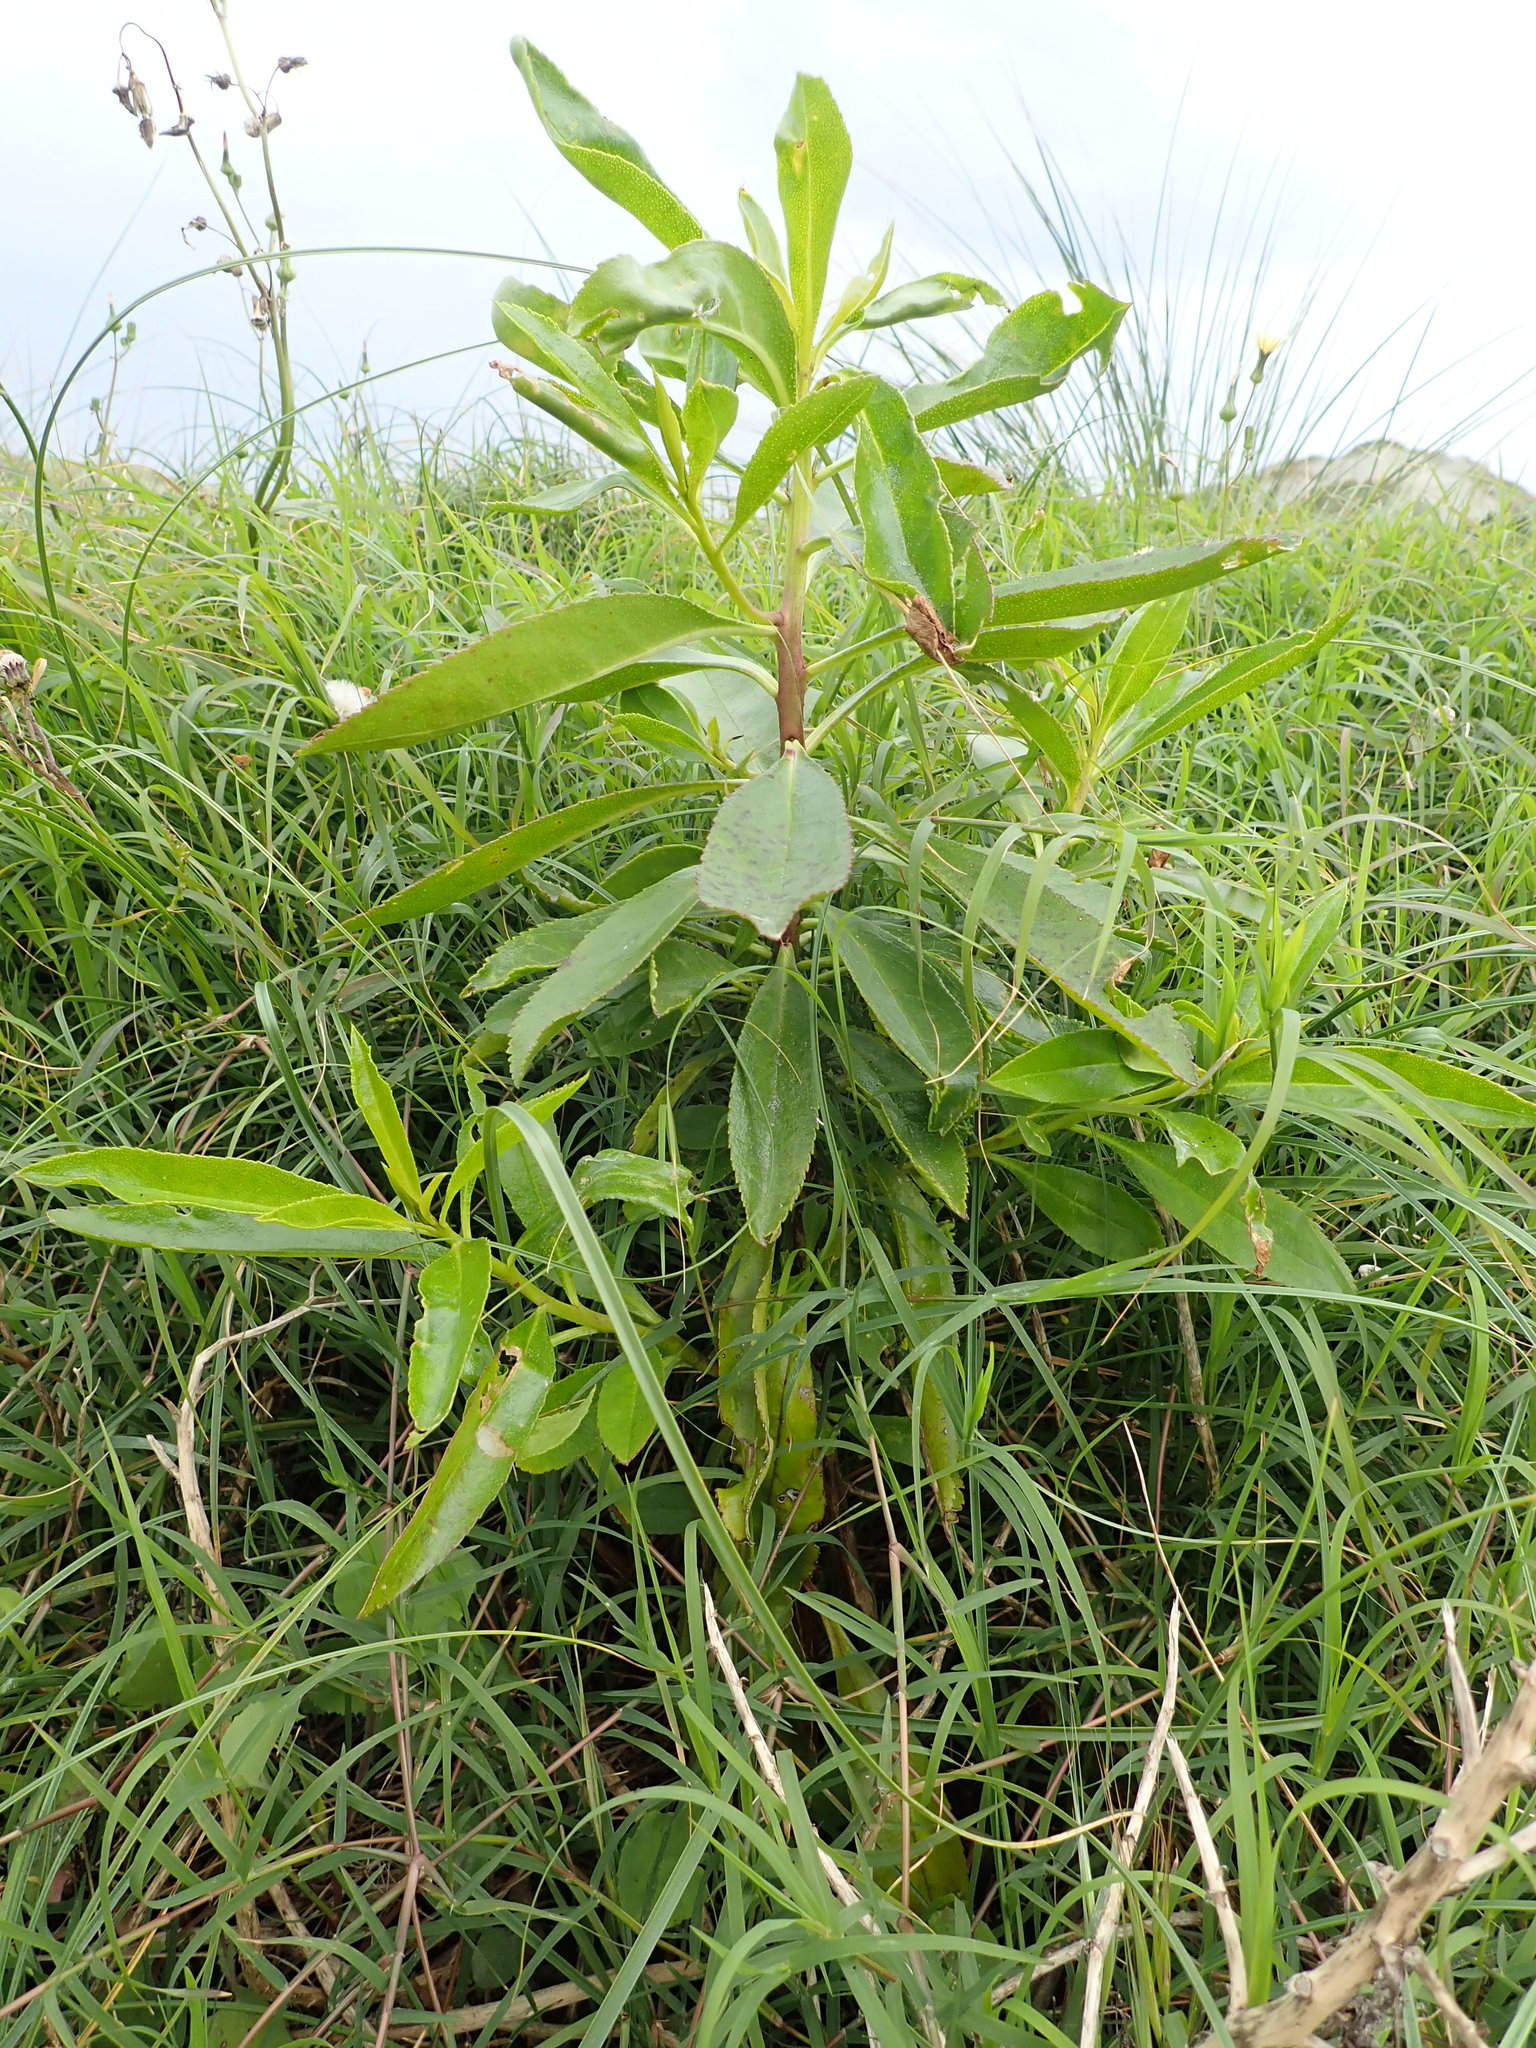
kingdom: Plantae
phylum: Tracheophyta
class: Magnoliopsida
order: Lamiales
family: Scrophulariaceae
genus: Myoporum
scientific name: Myoporum laetum
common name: Ngaio tree
